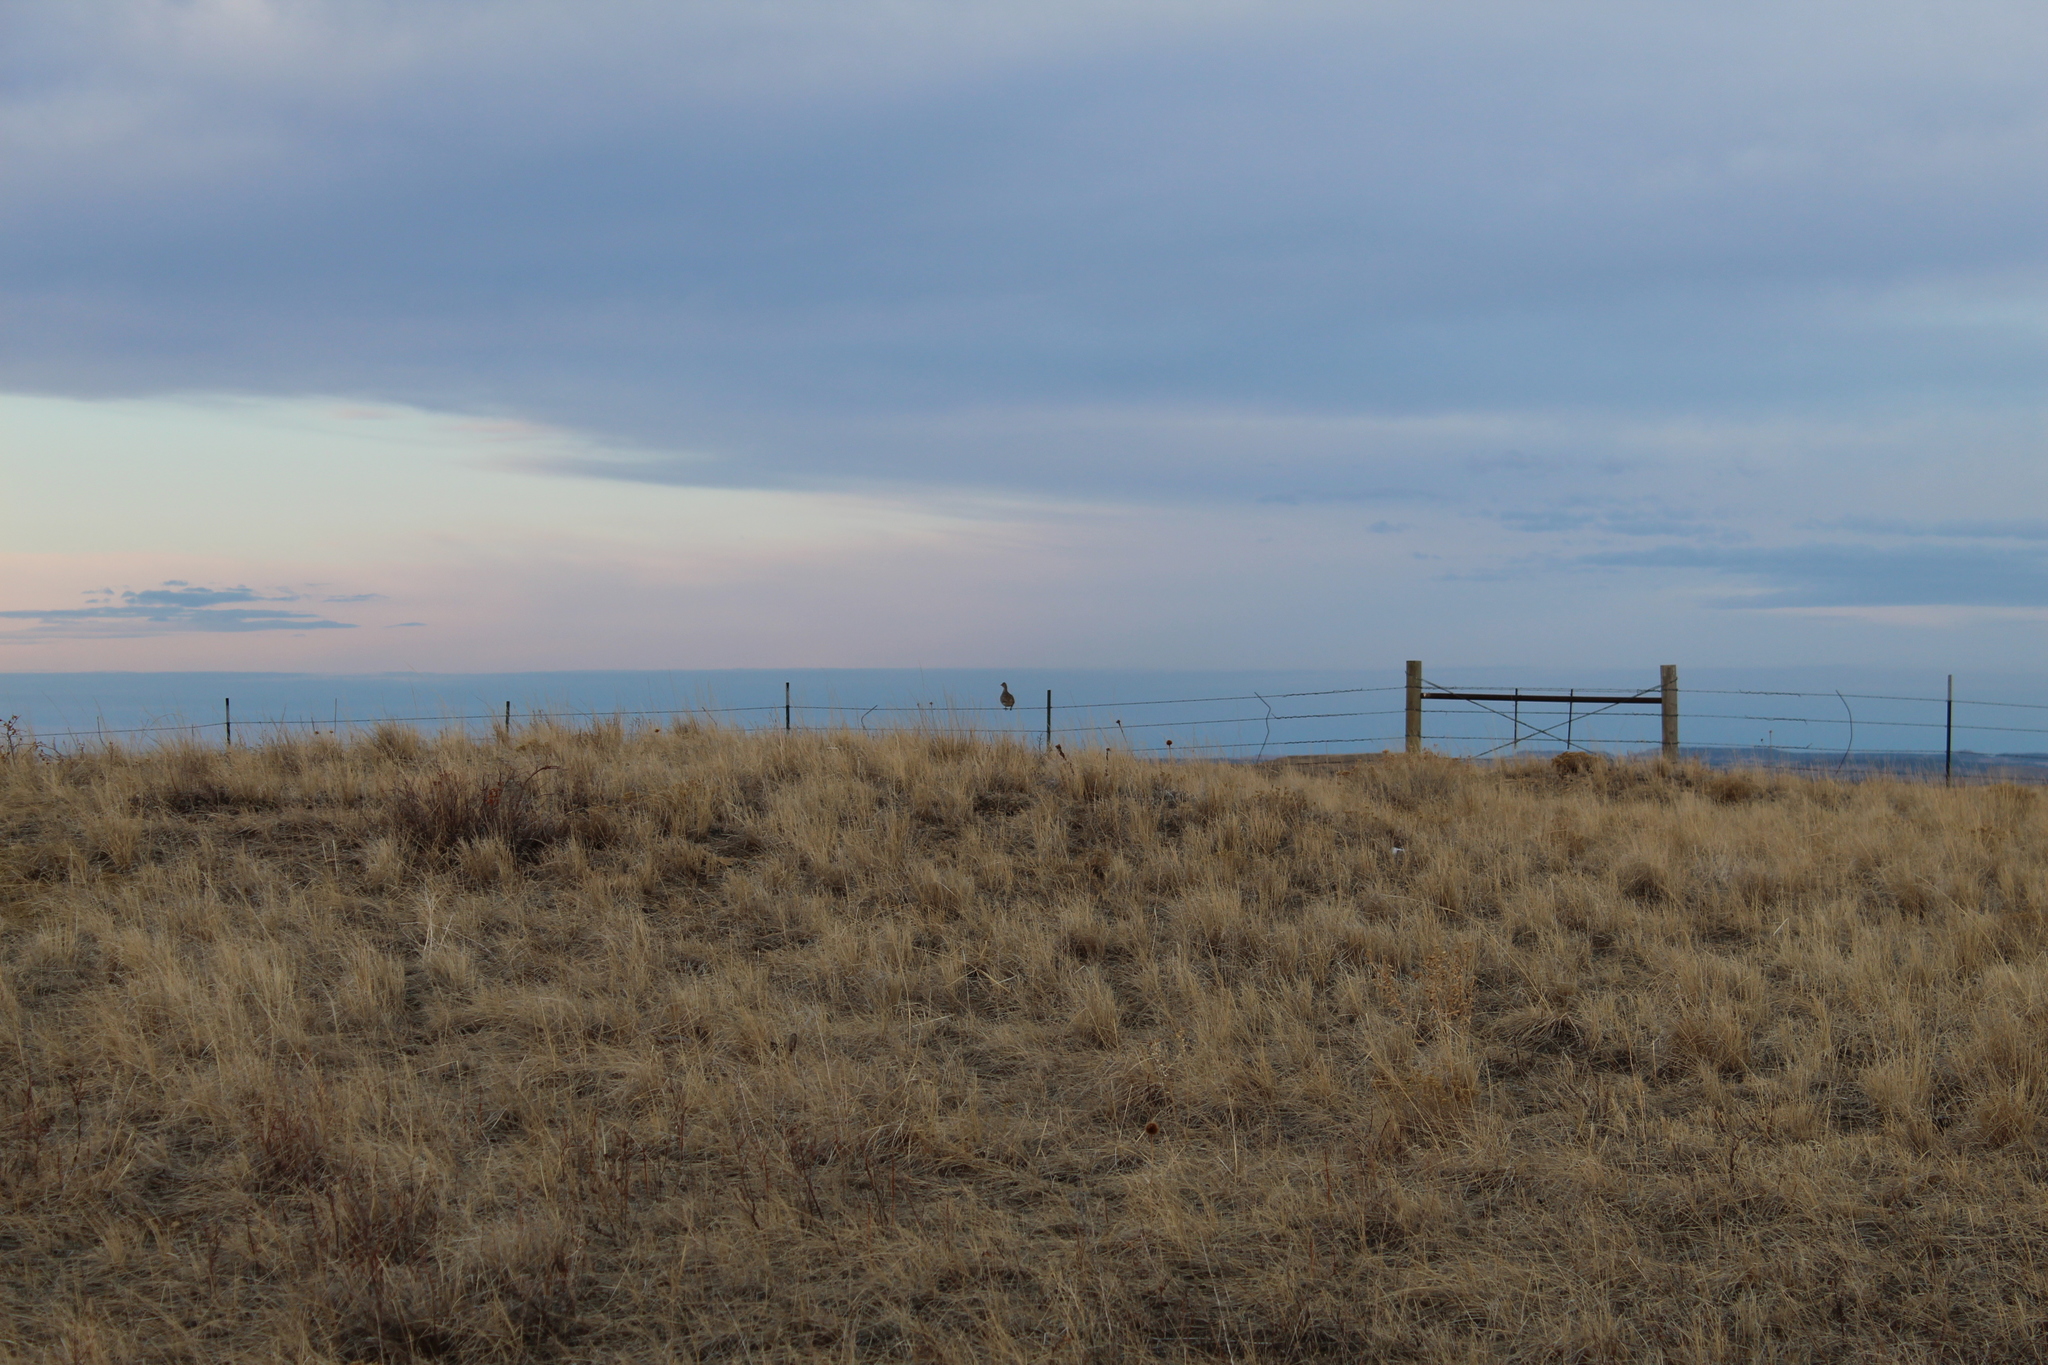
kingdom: Animalia
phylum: Chordata
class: Aves
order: Galliformes
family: Phasianidae
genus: Tympanuchus
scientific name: Tympanuchus phasianellus
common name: Sharp-tailed grouse
